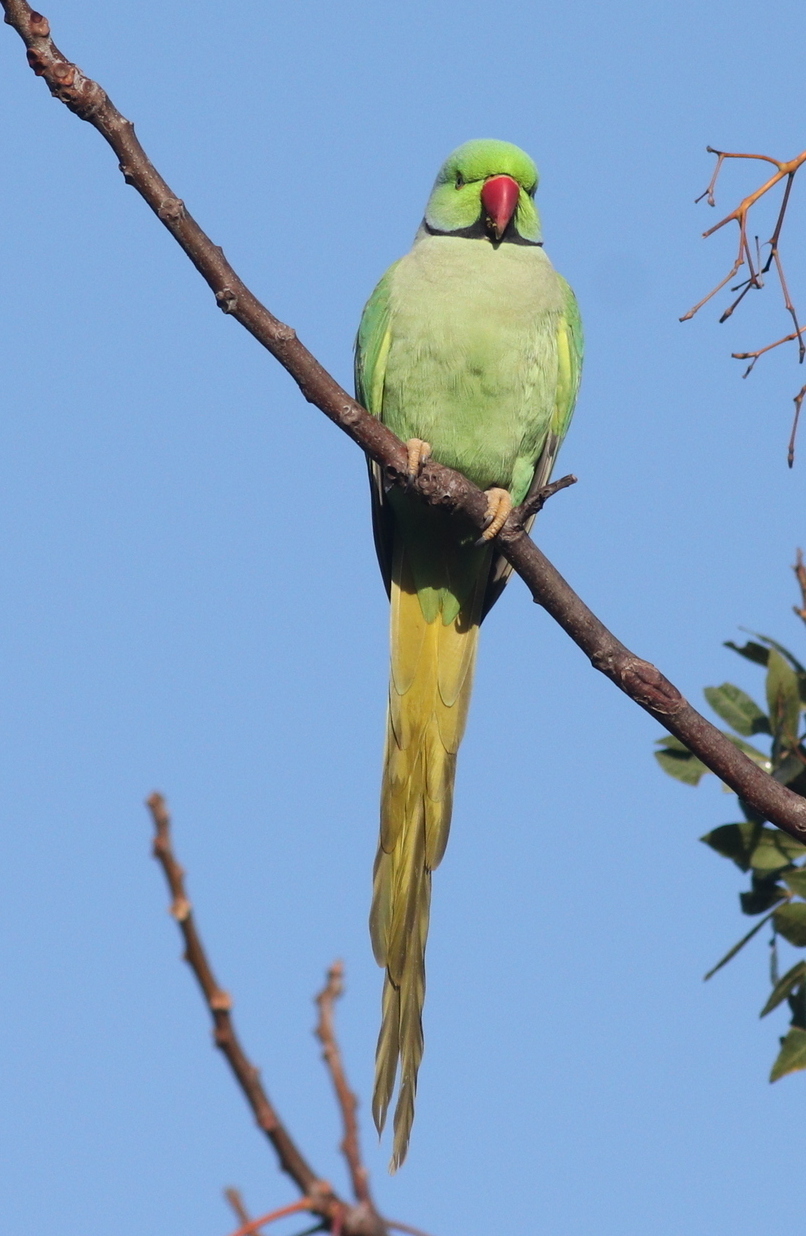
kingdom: Animalia
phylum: Chordata
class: Aves
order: Psittaciformes
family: Psittacidae
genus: Psittacula
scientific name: Psittacula krameri
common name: Rose-ringed parakeet
